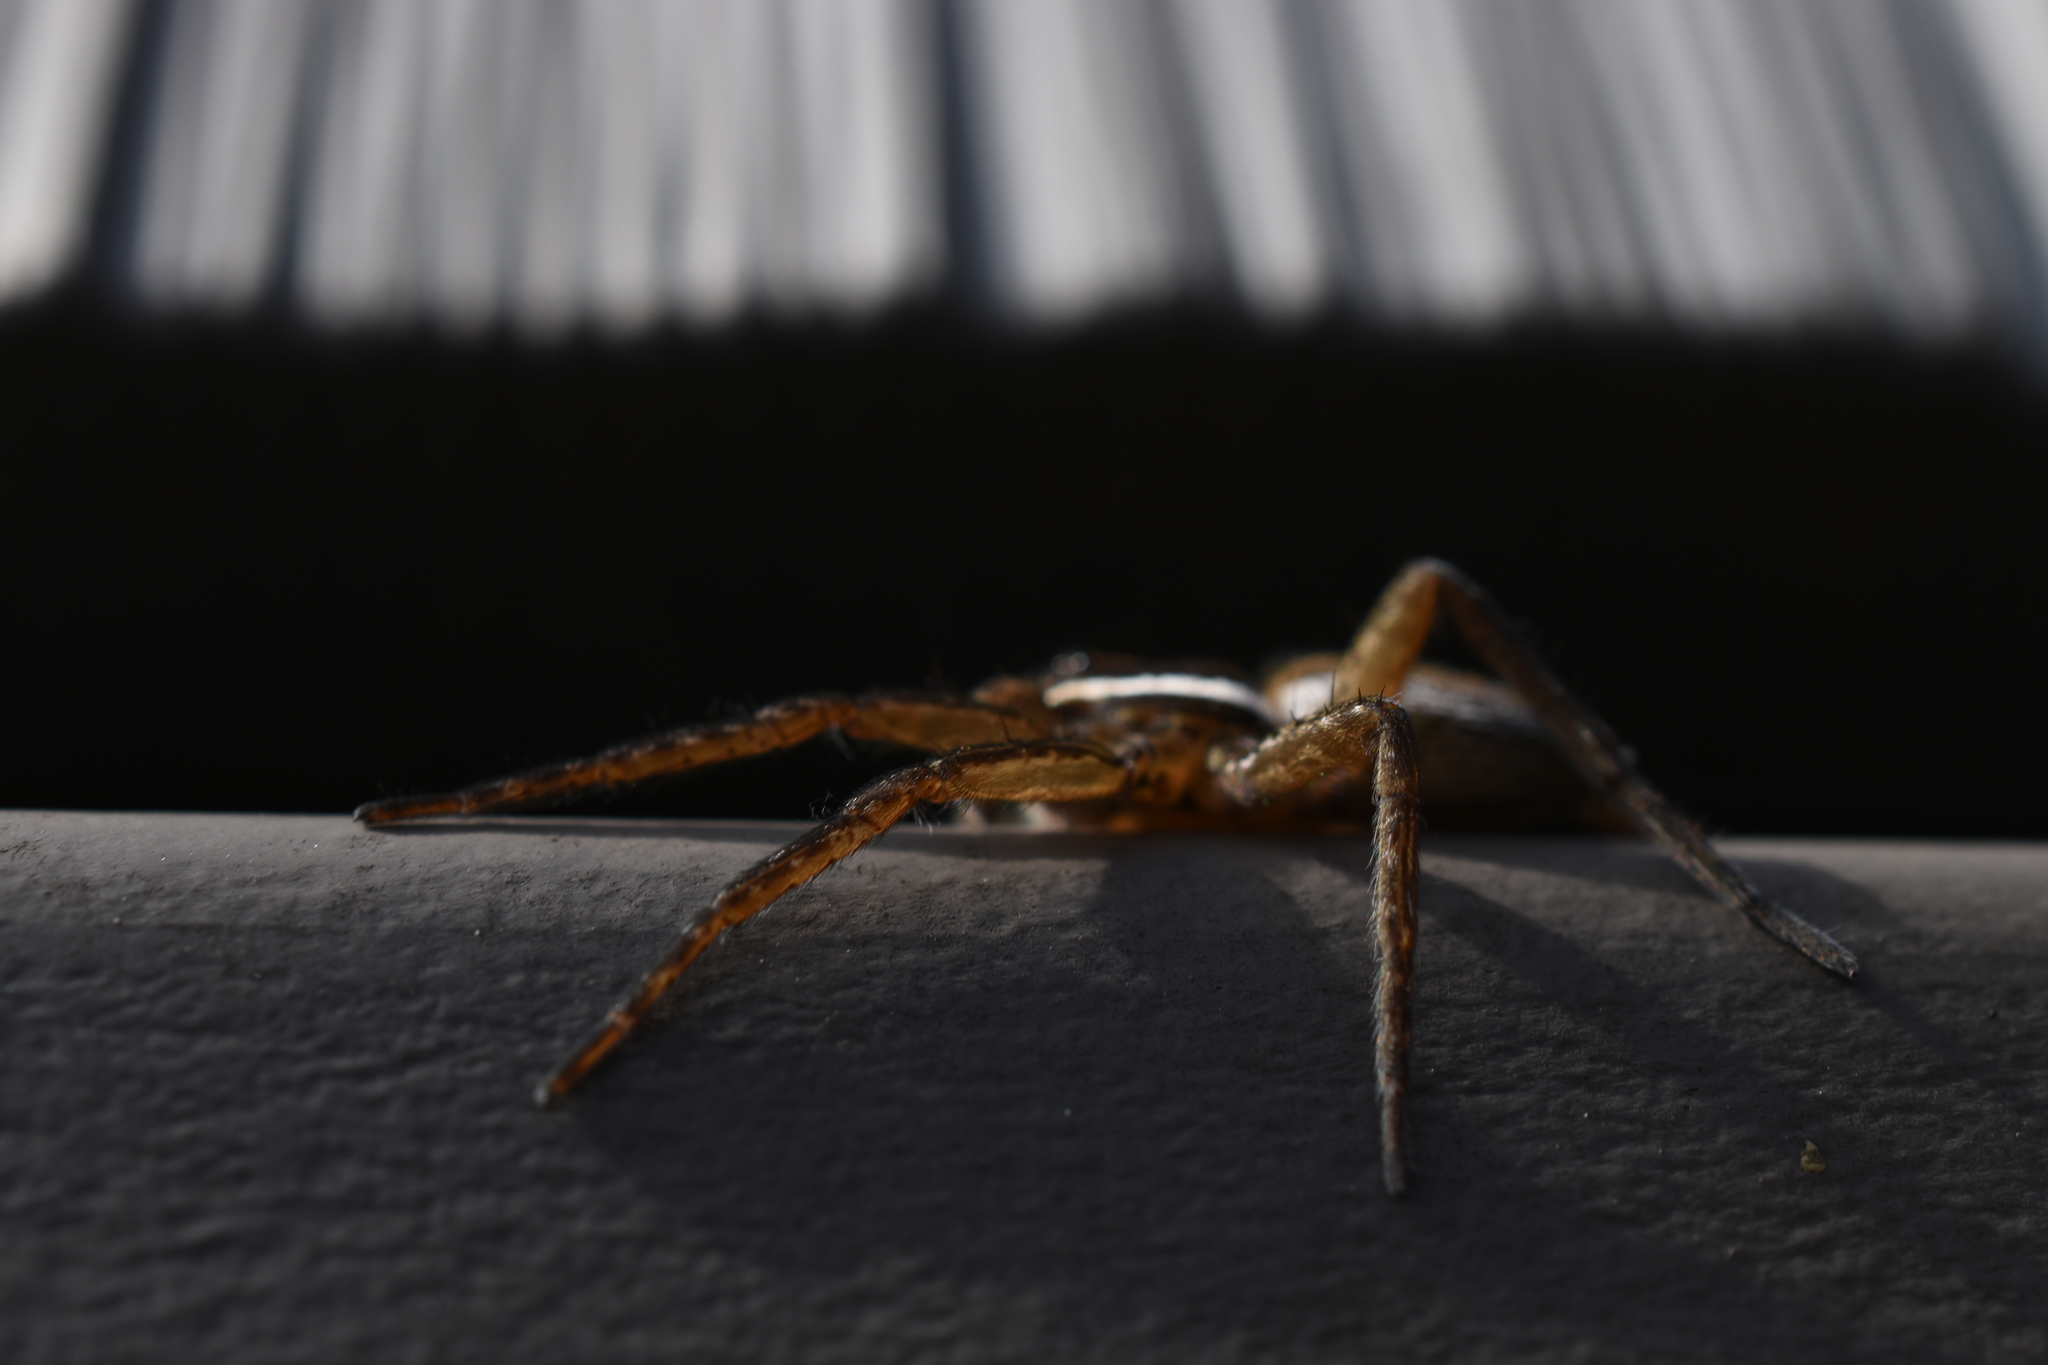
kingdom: Animalia
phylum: Arthropoda
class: Arachnida
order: Araneae
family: Pisauridae
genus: Dolomedes
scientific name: Dolomedes triton
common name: Six-spotted fishing spider
